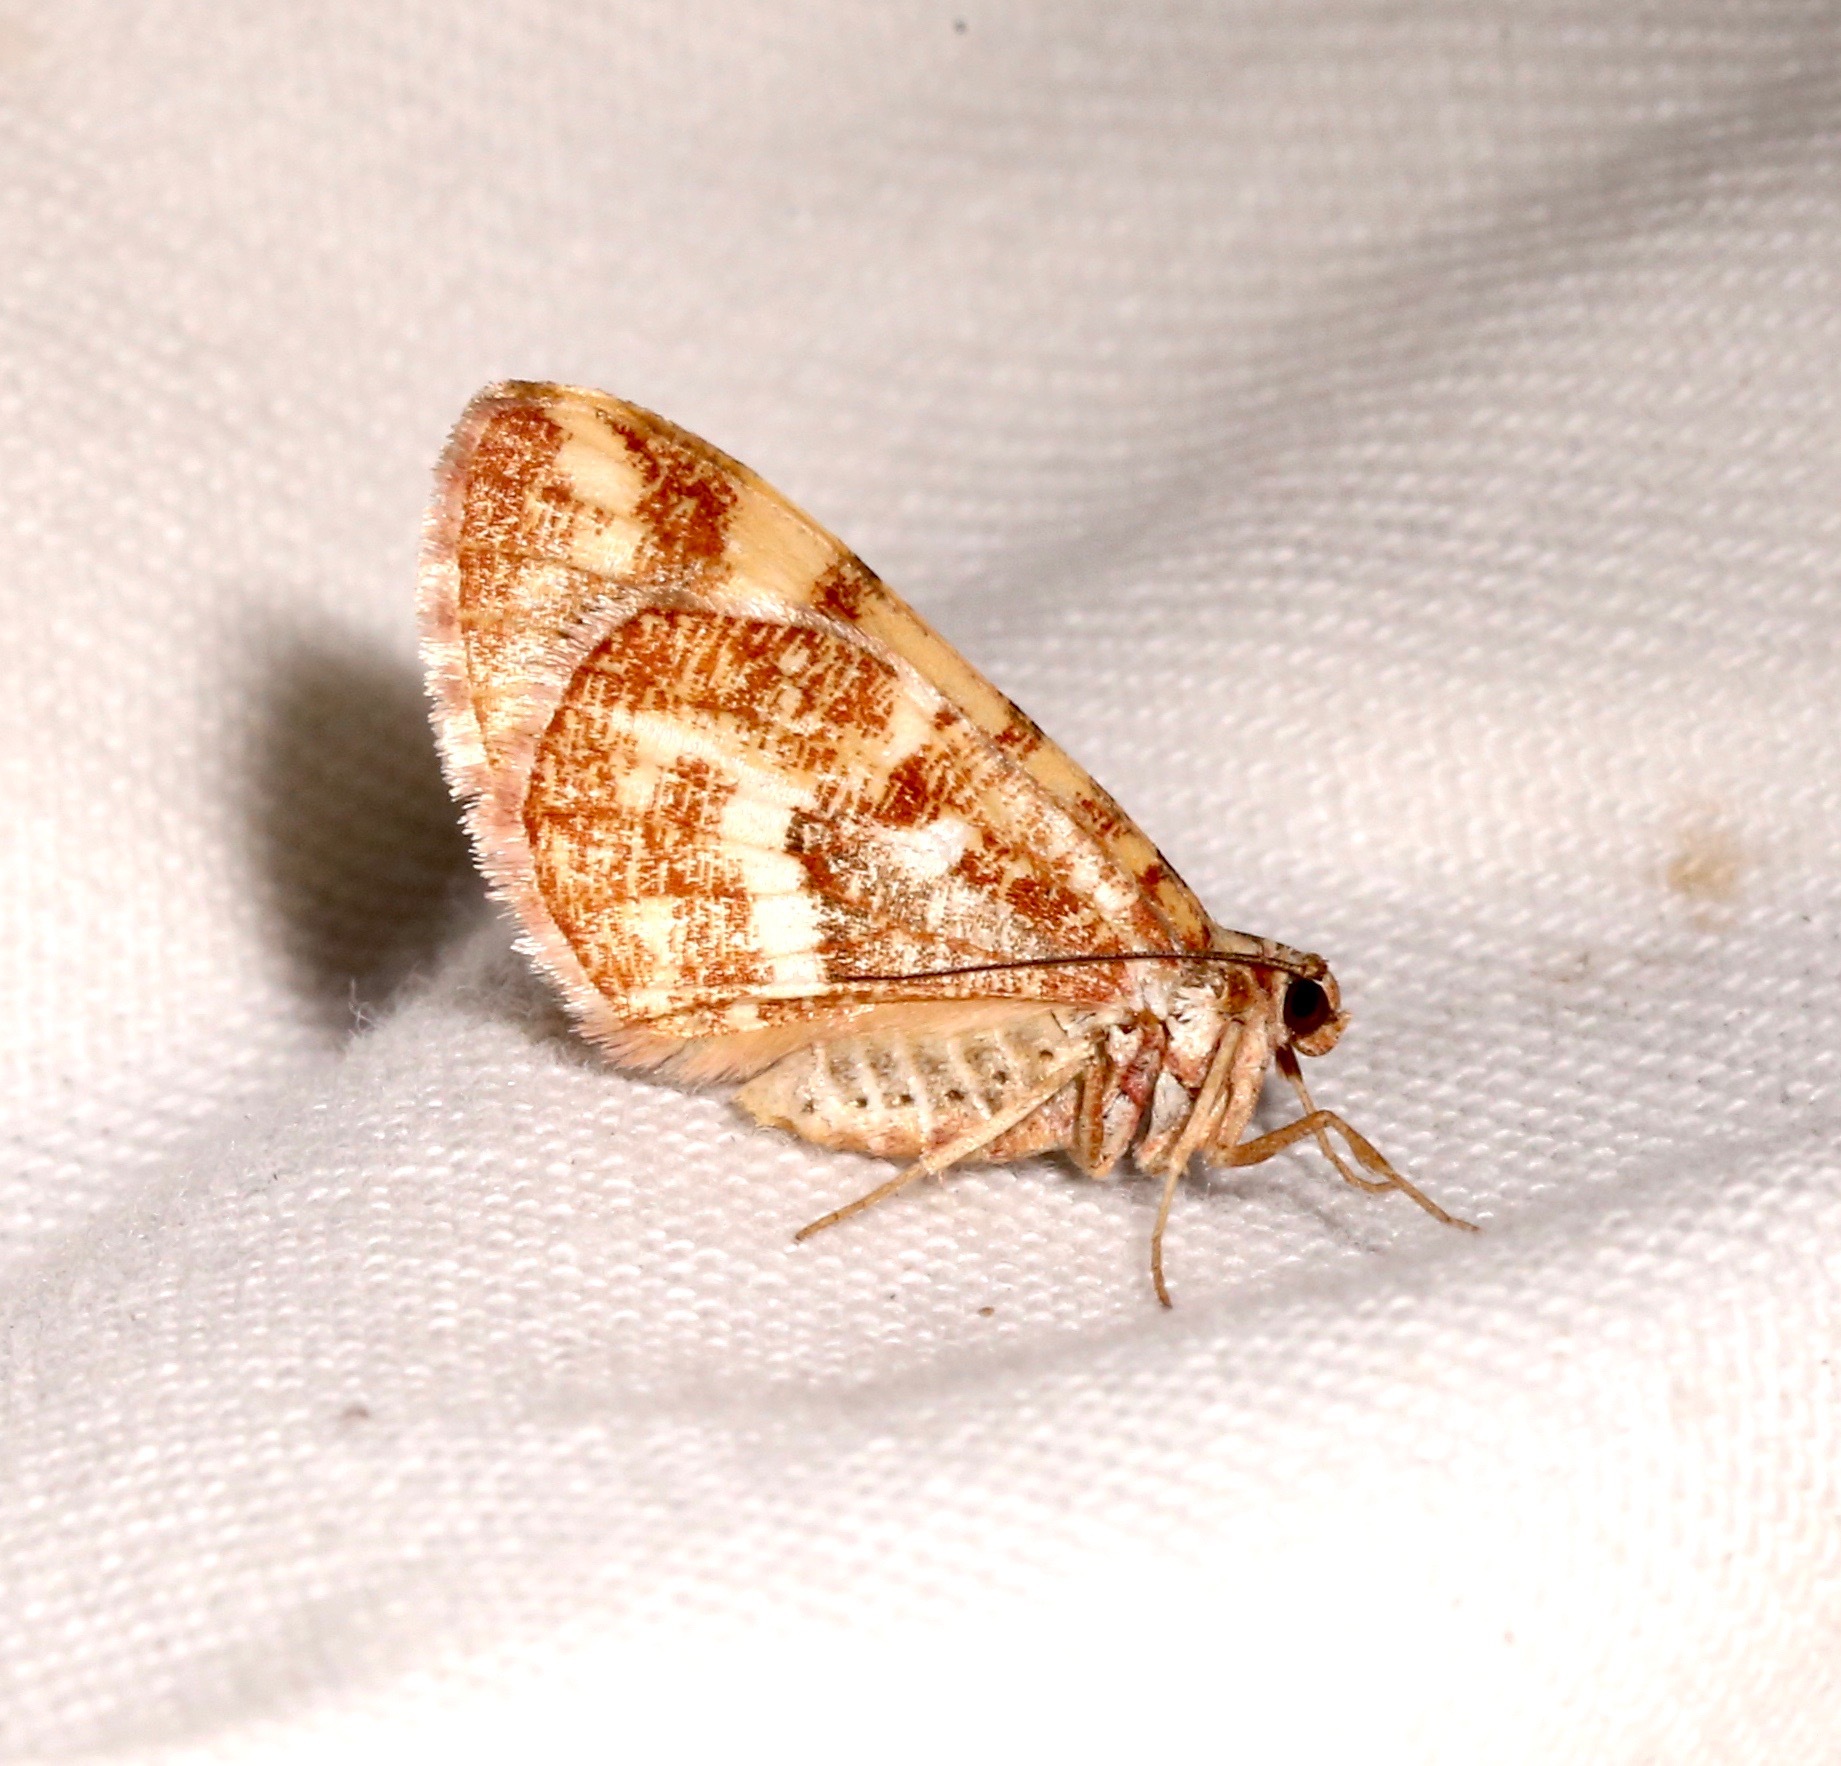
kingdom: Animalia
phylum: Arthropoda
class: Insecta
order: Lepidoptera
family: Geometridae
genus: Stamnodes
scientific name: Stamnodes formosata
